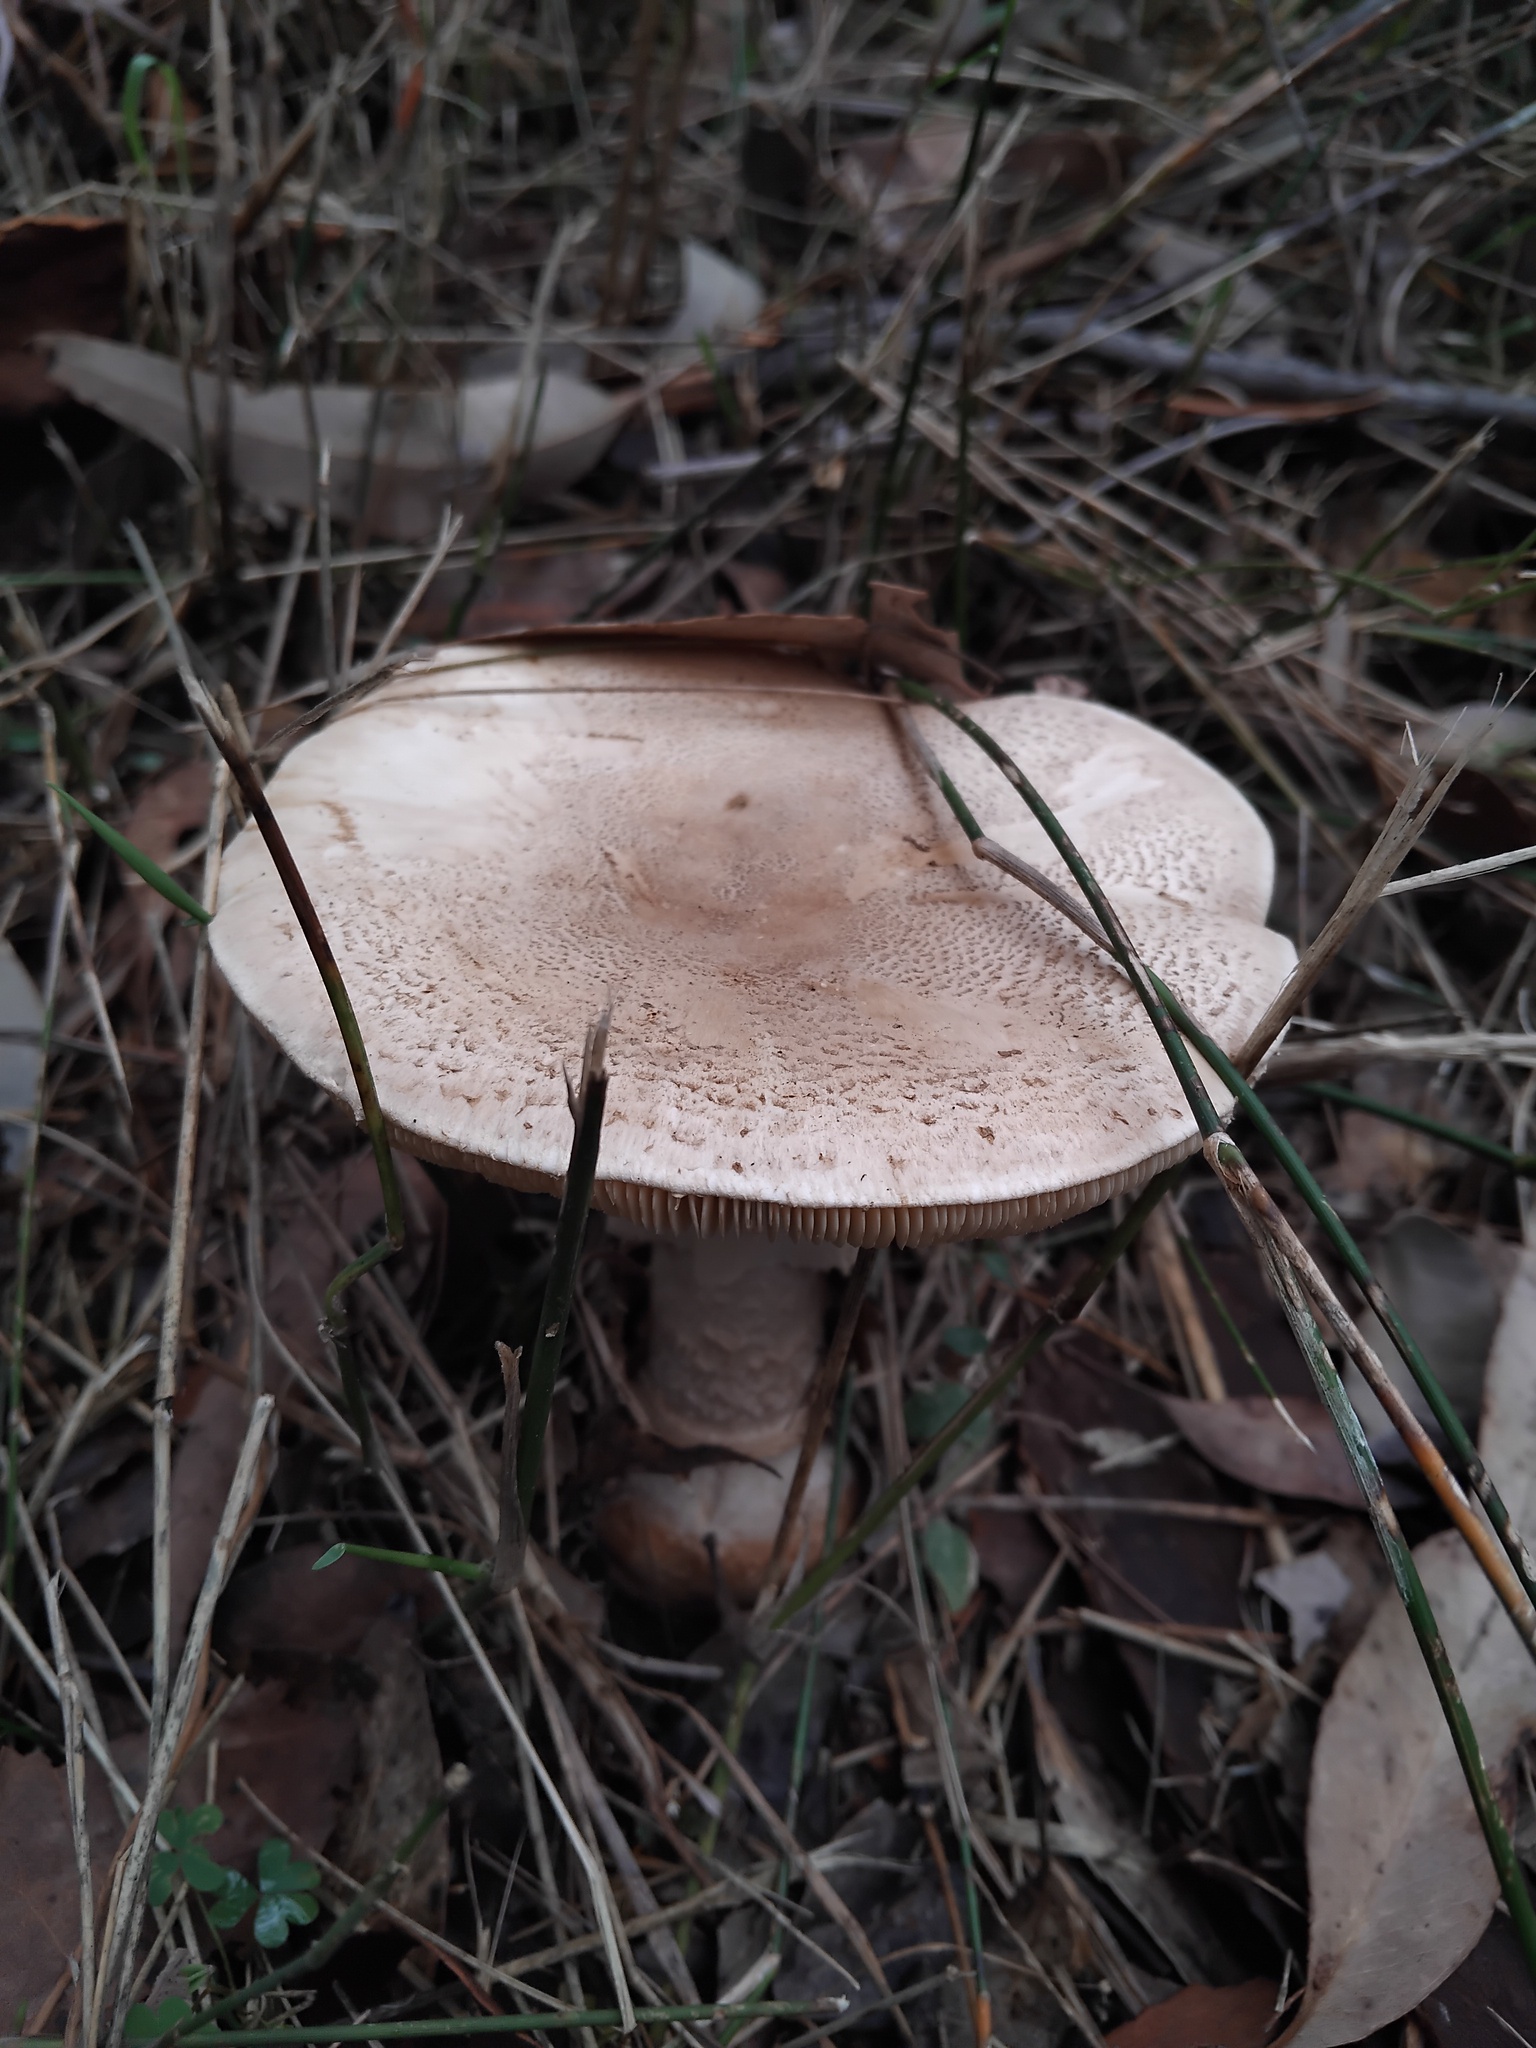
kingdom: Fungi
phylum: Basidiomycota
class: Agaricomycetes
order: Agaricales
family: Amanitaceae
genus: Amanita
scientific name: Amanita ochrophylla
